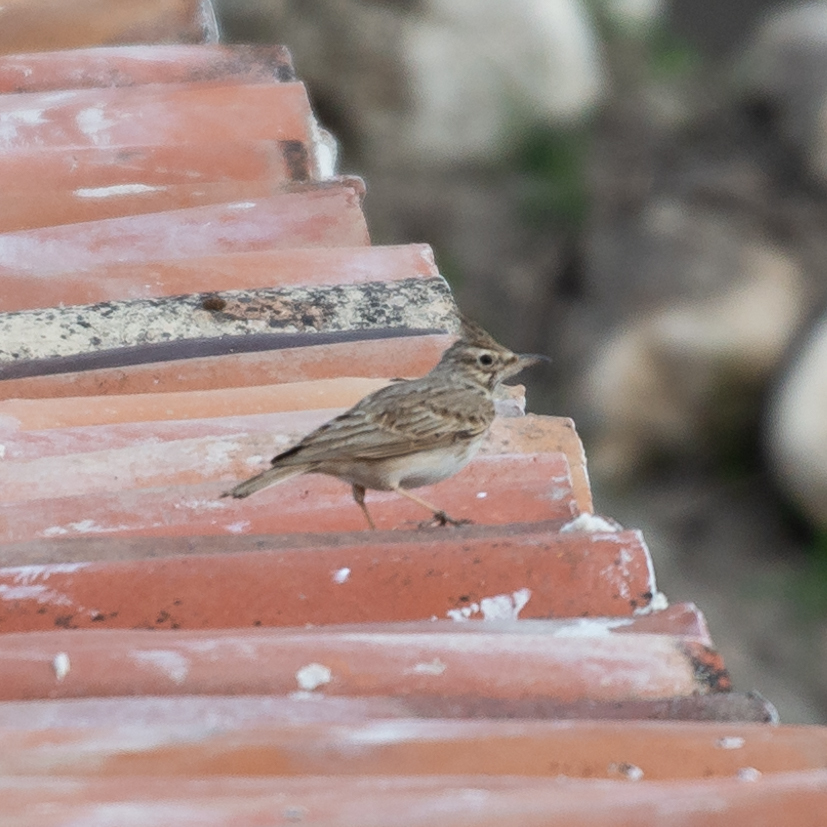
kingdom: Animalia
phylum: Chordata
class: Aves
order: Passeriformes
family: Alaudidae
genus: Galerida
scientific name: Galerida cristata
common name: Crested lark
